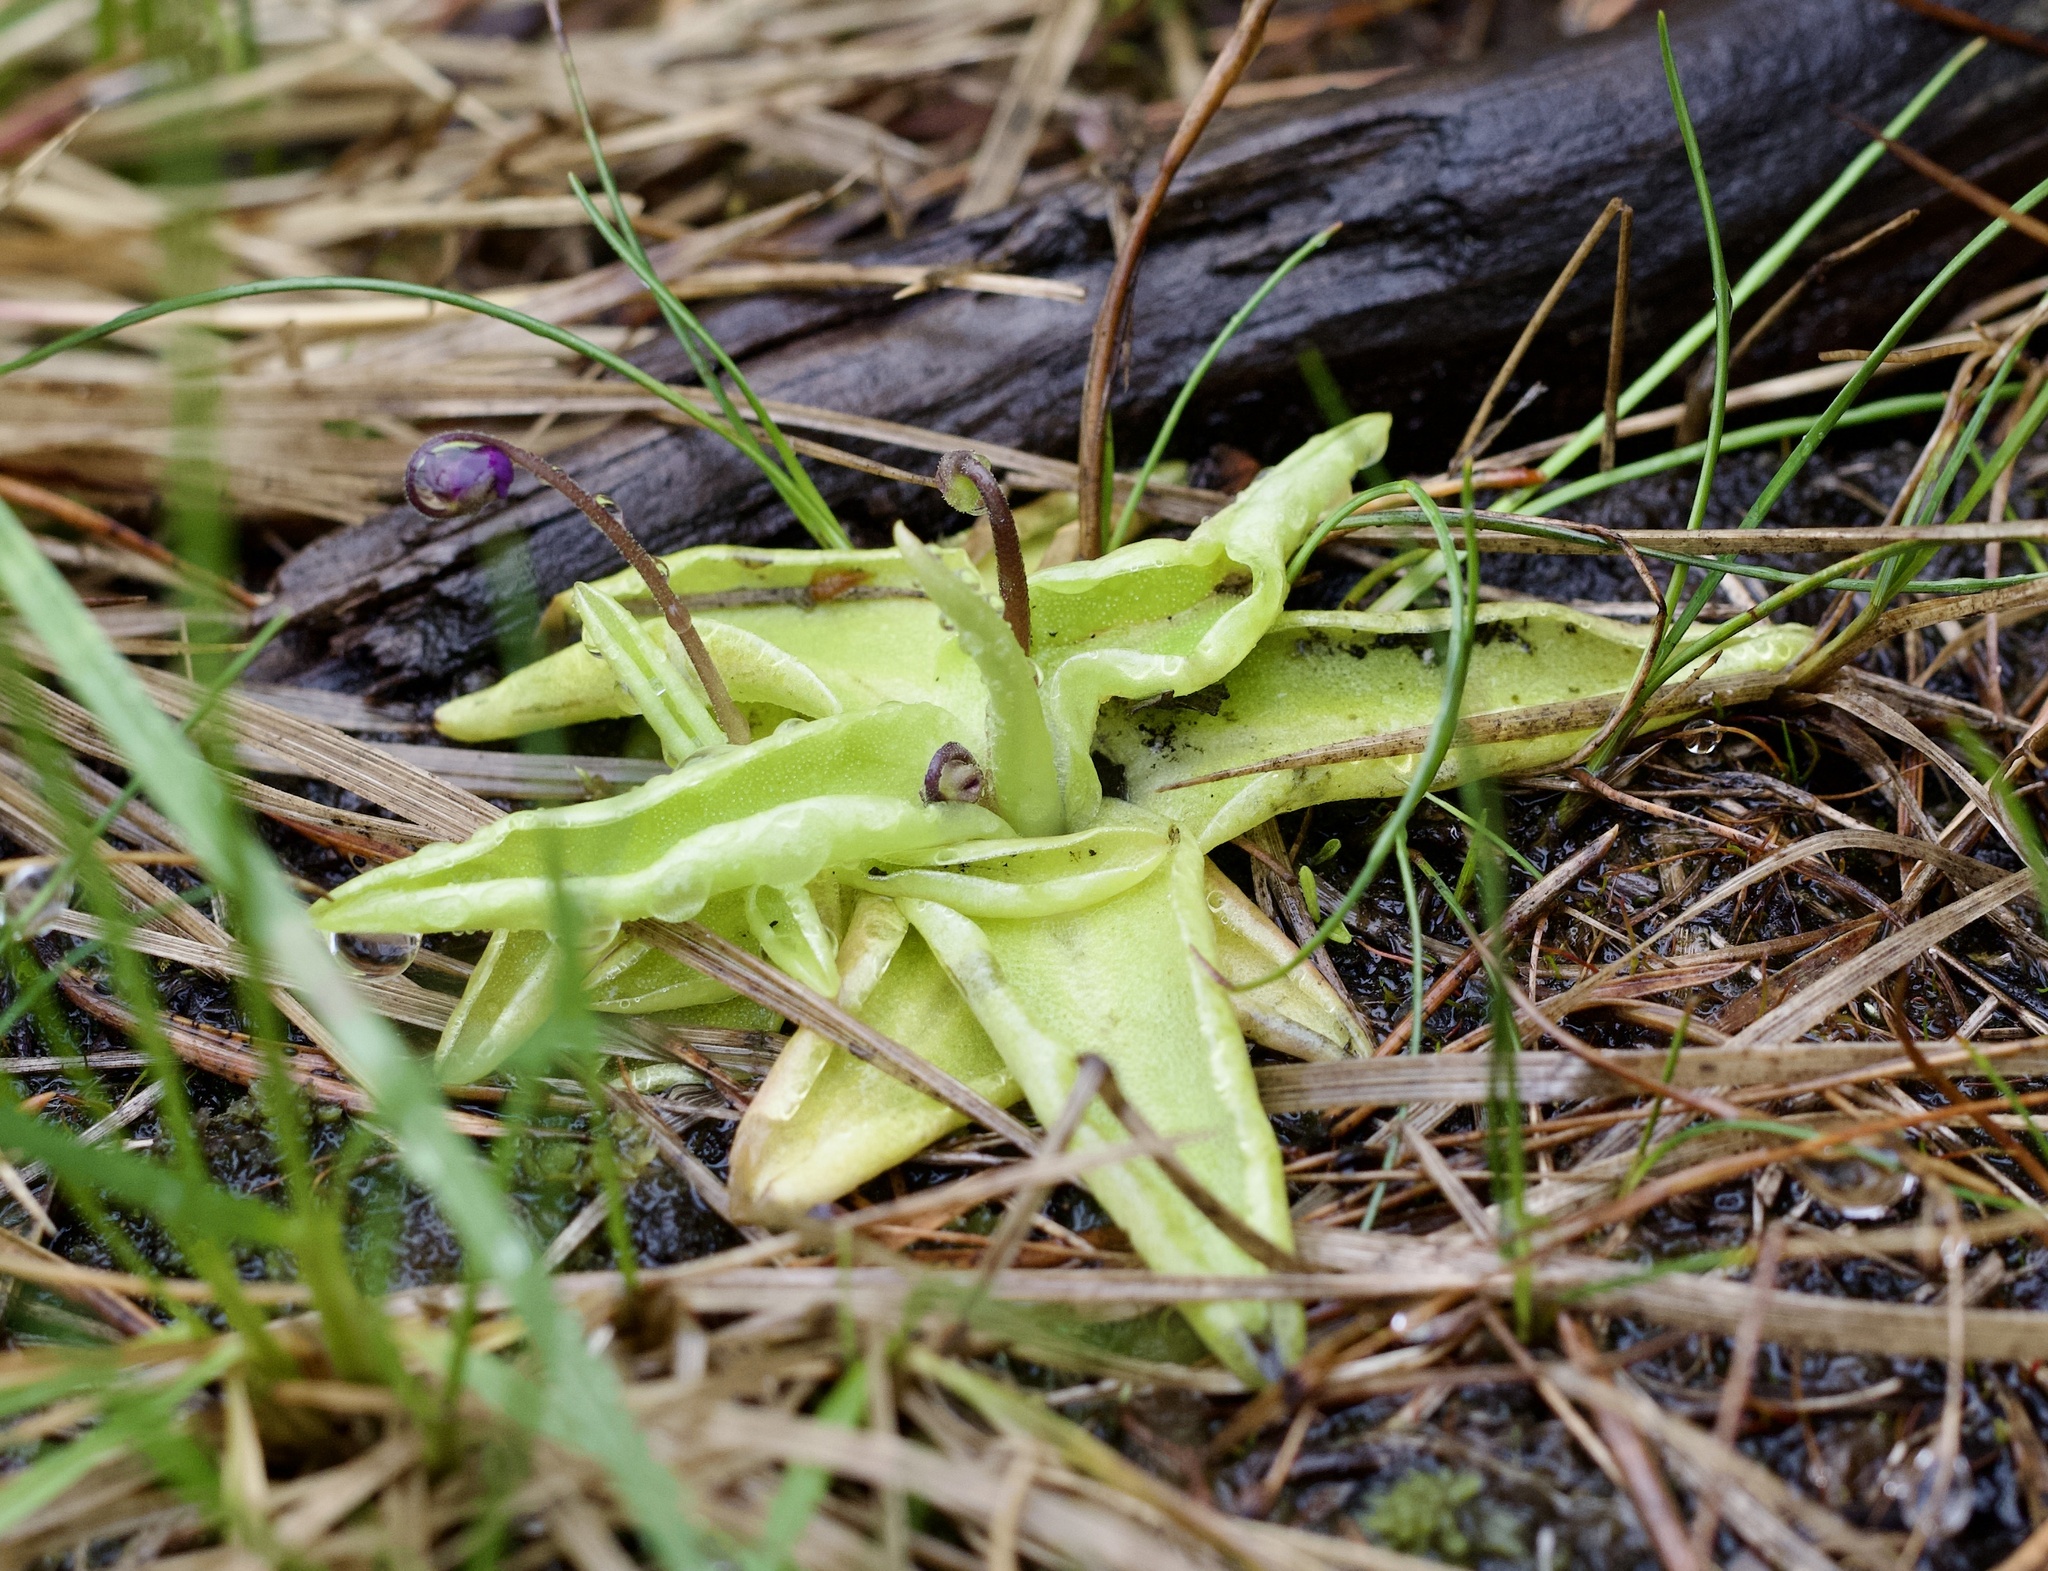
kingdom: Plantae
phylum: Tracheophyta
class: Magnoliopsida
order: Lamiales
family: Lentibulariaceae
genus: Pinguicula
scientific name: Pinguicula vulgaris
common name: Common butterwort
